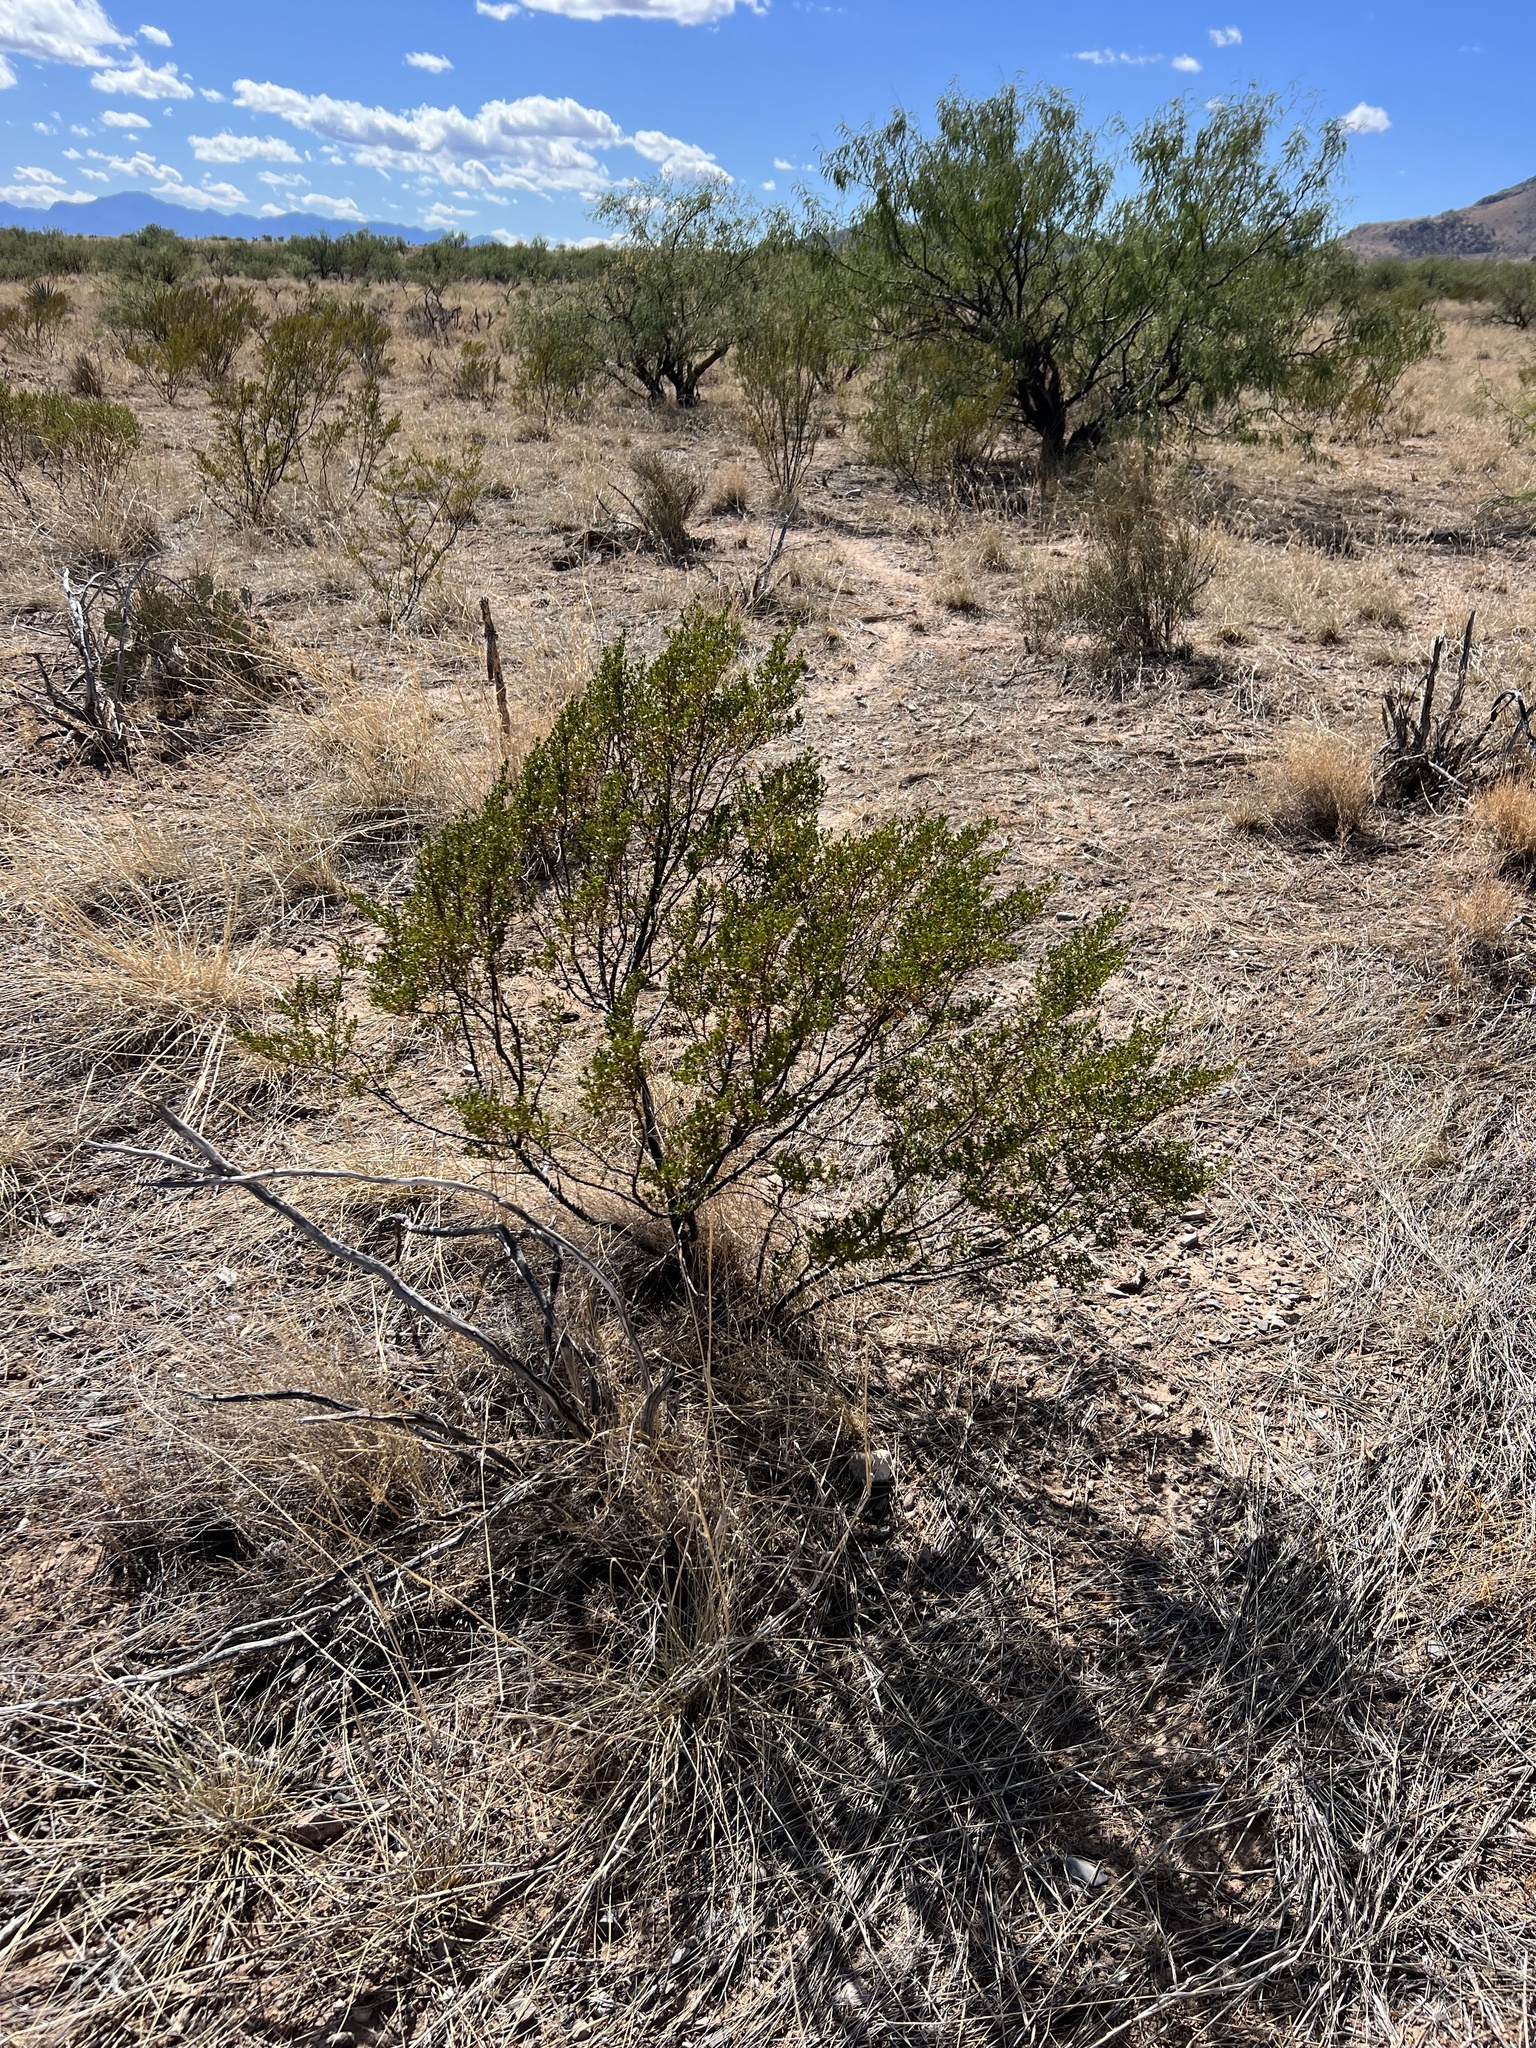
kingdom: Plantae
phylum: Tracheophyta
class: Magnoliopsida
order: Zygophyllales
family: Zygophyllaceae
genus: Larrea
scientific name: Larrea tridentata
